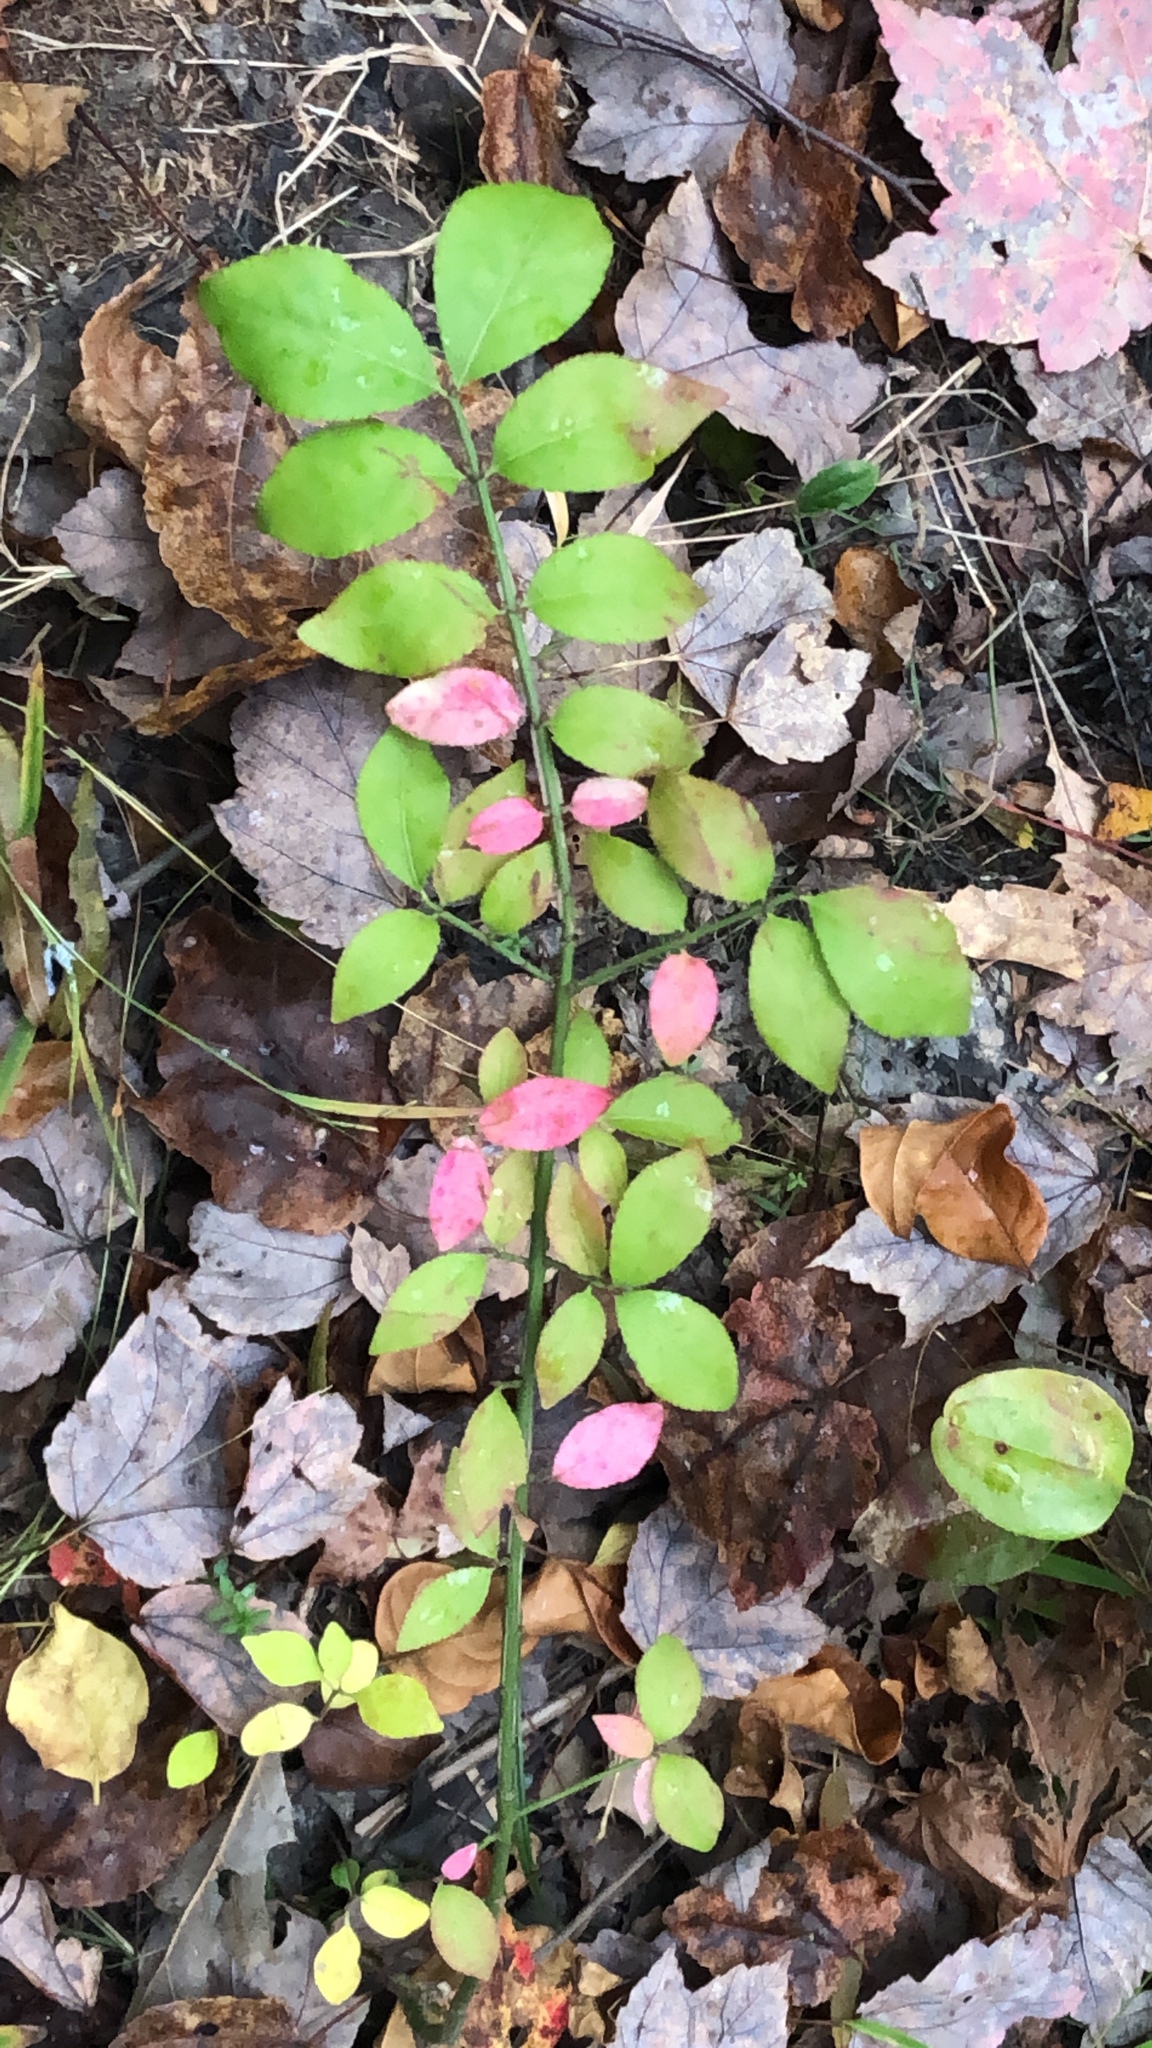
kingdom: Plantae
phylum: Tracheophyta
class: Magnoliopsida
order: Celastrales
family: Celastraceae
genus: Euonymus
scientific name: Euonymus alatus
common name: Winged euonymus
